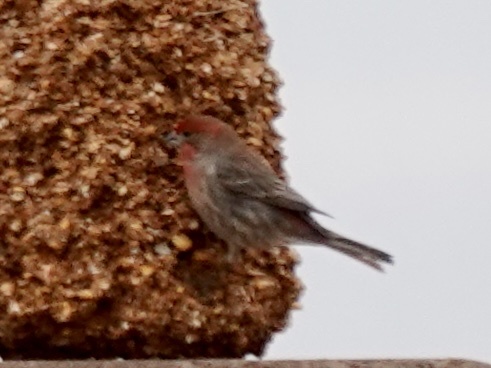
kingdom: Animalia
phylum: Chordata
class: Aves
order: Passeriformes
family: Fringillidae
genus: Haemorhous
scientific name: Haemorhous mexicanus
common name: House finch
